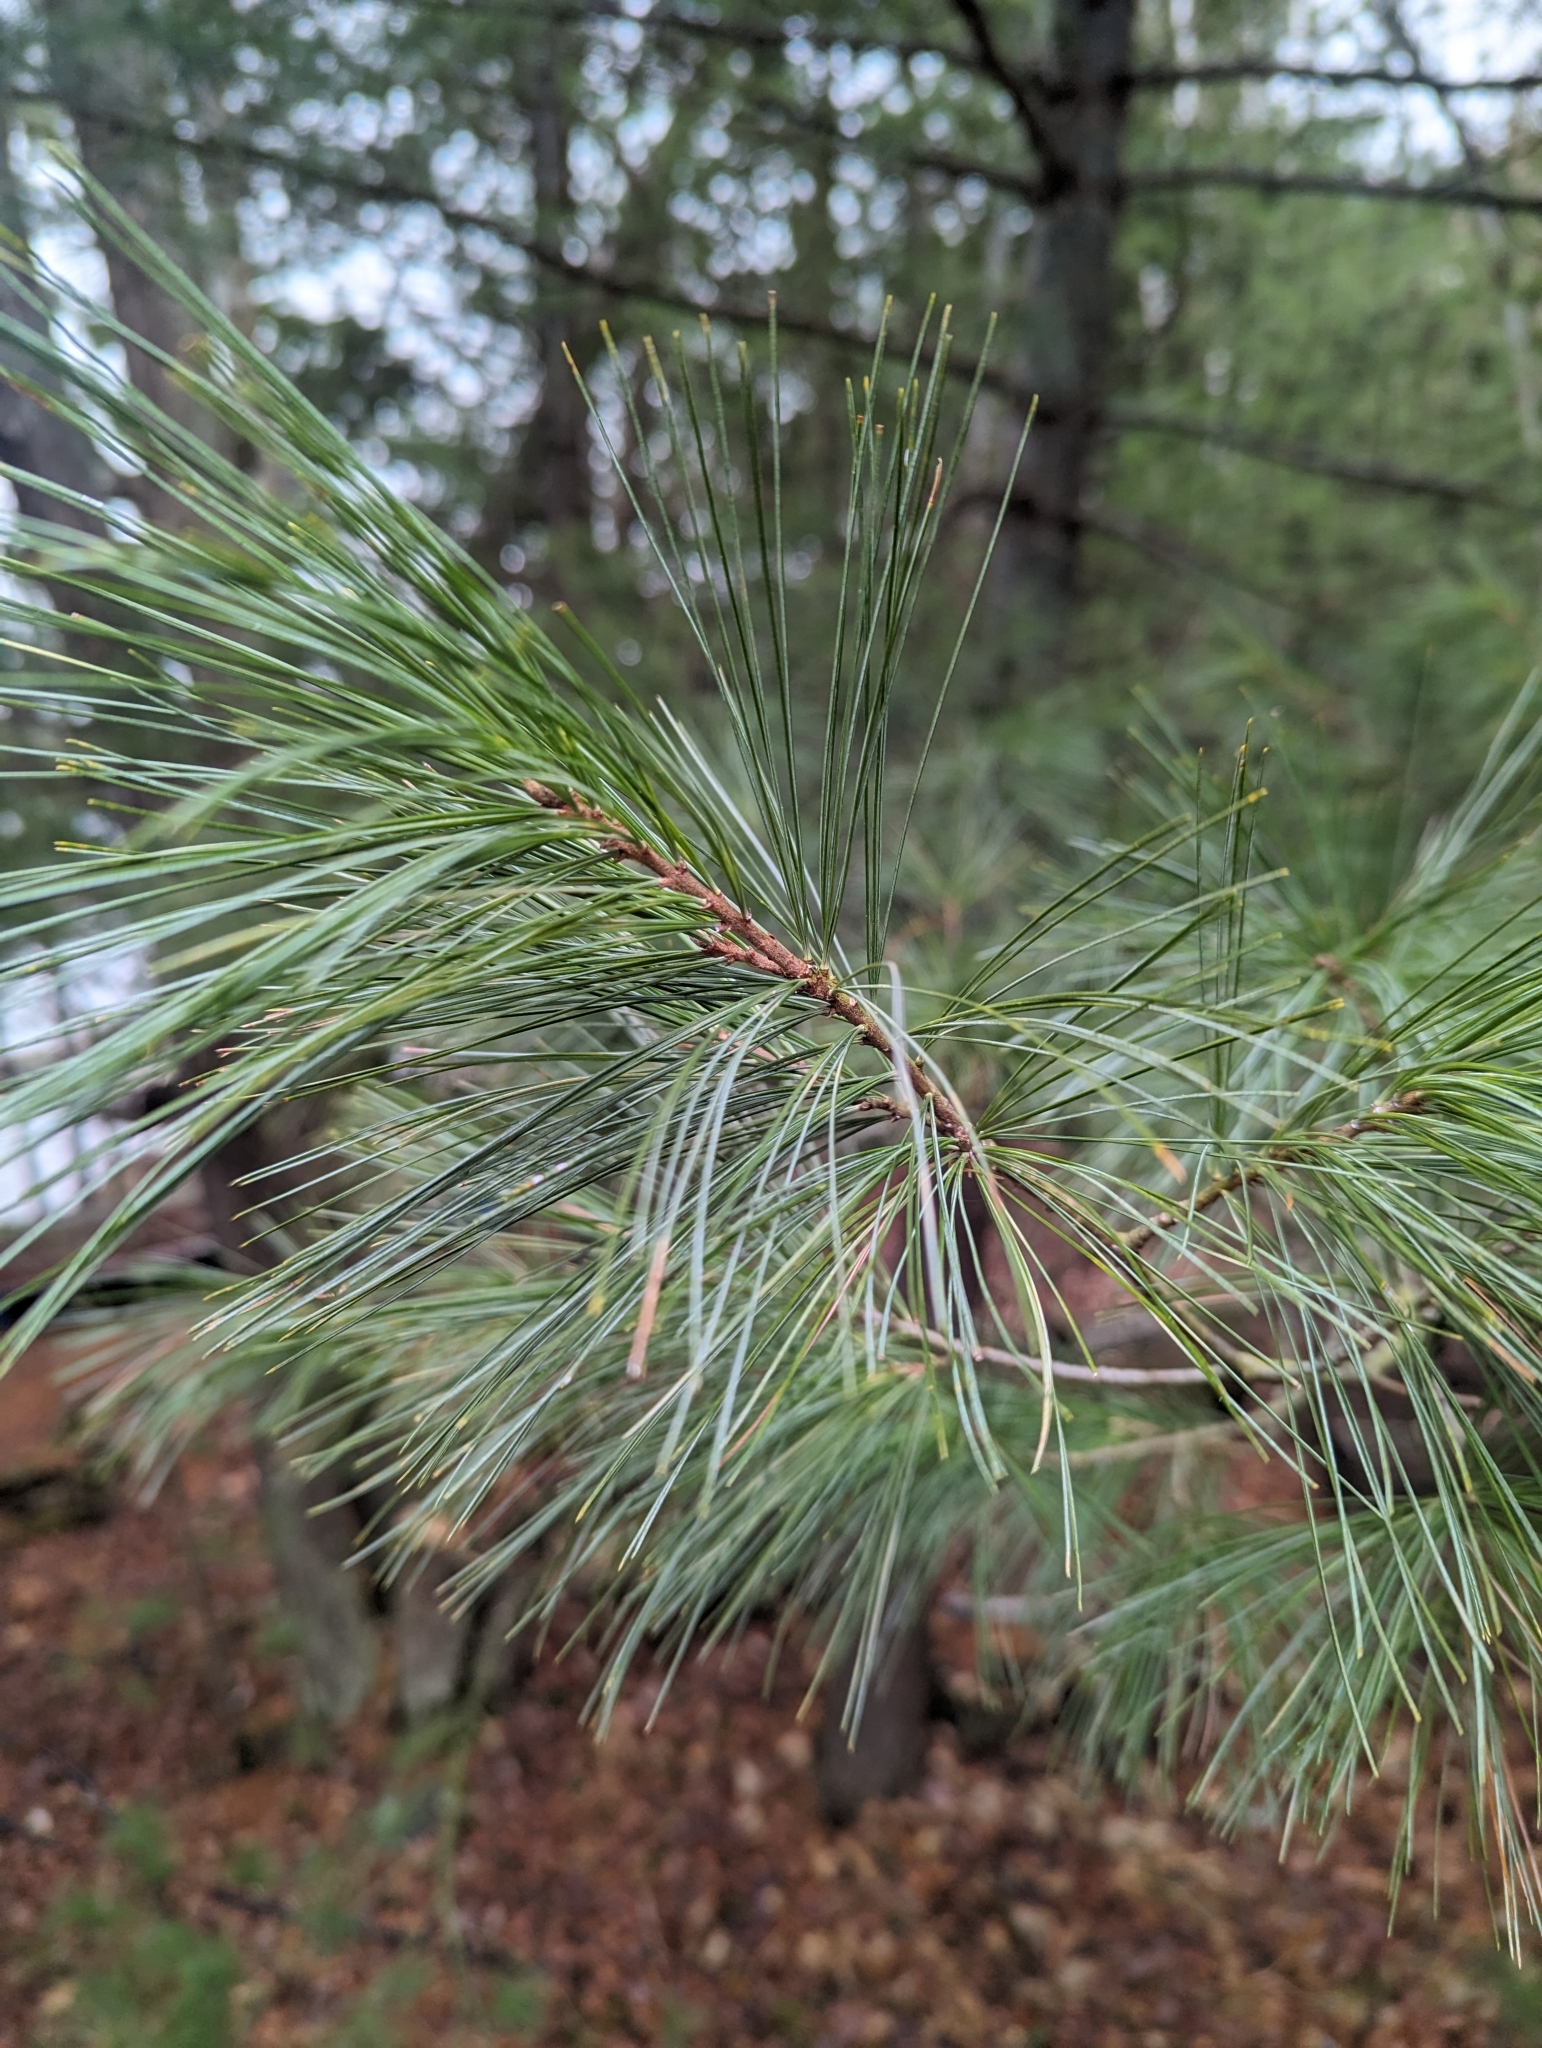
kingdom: Plantae
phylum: Tracheophyta
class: Pinopsida
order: Pinales
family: Pinaceae
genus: Pinus
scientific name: Pinus strobus
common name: Weymouth pine
